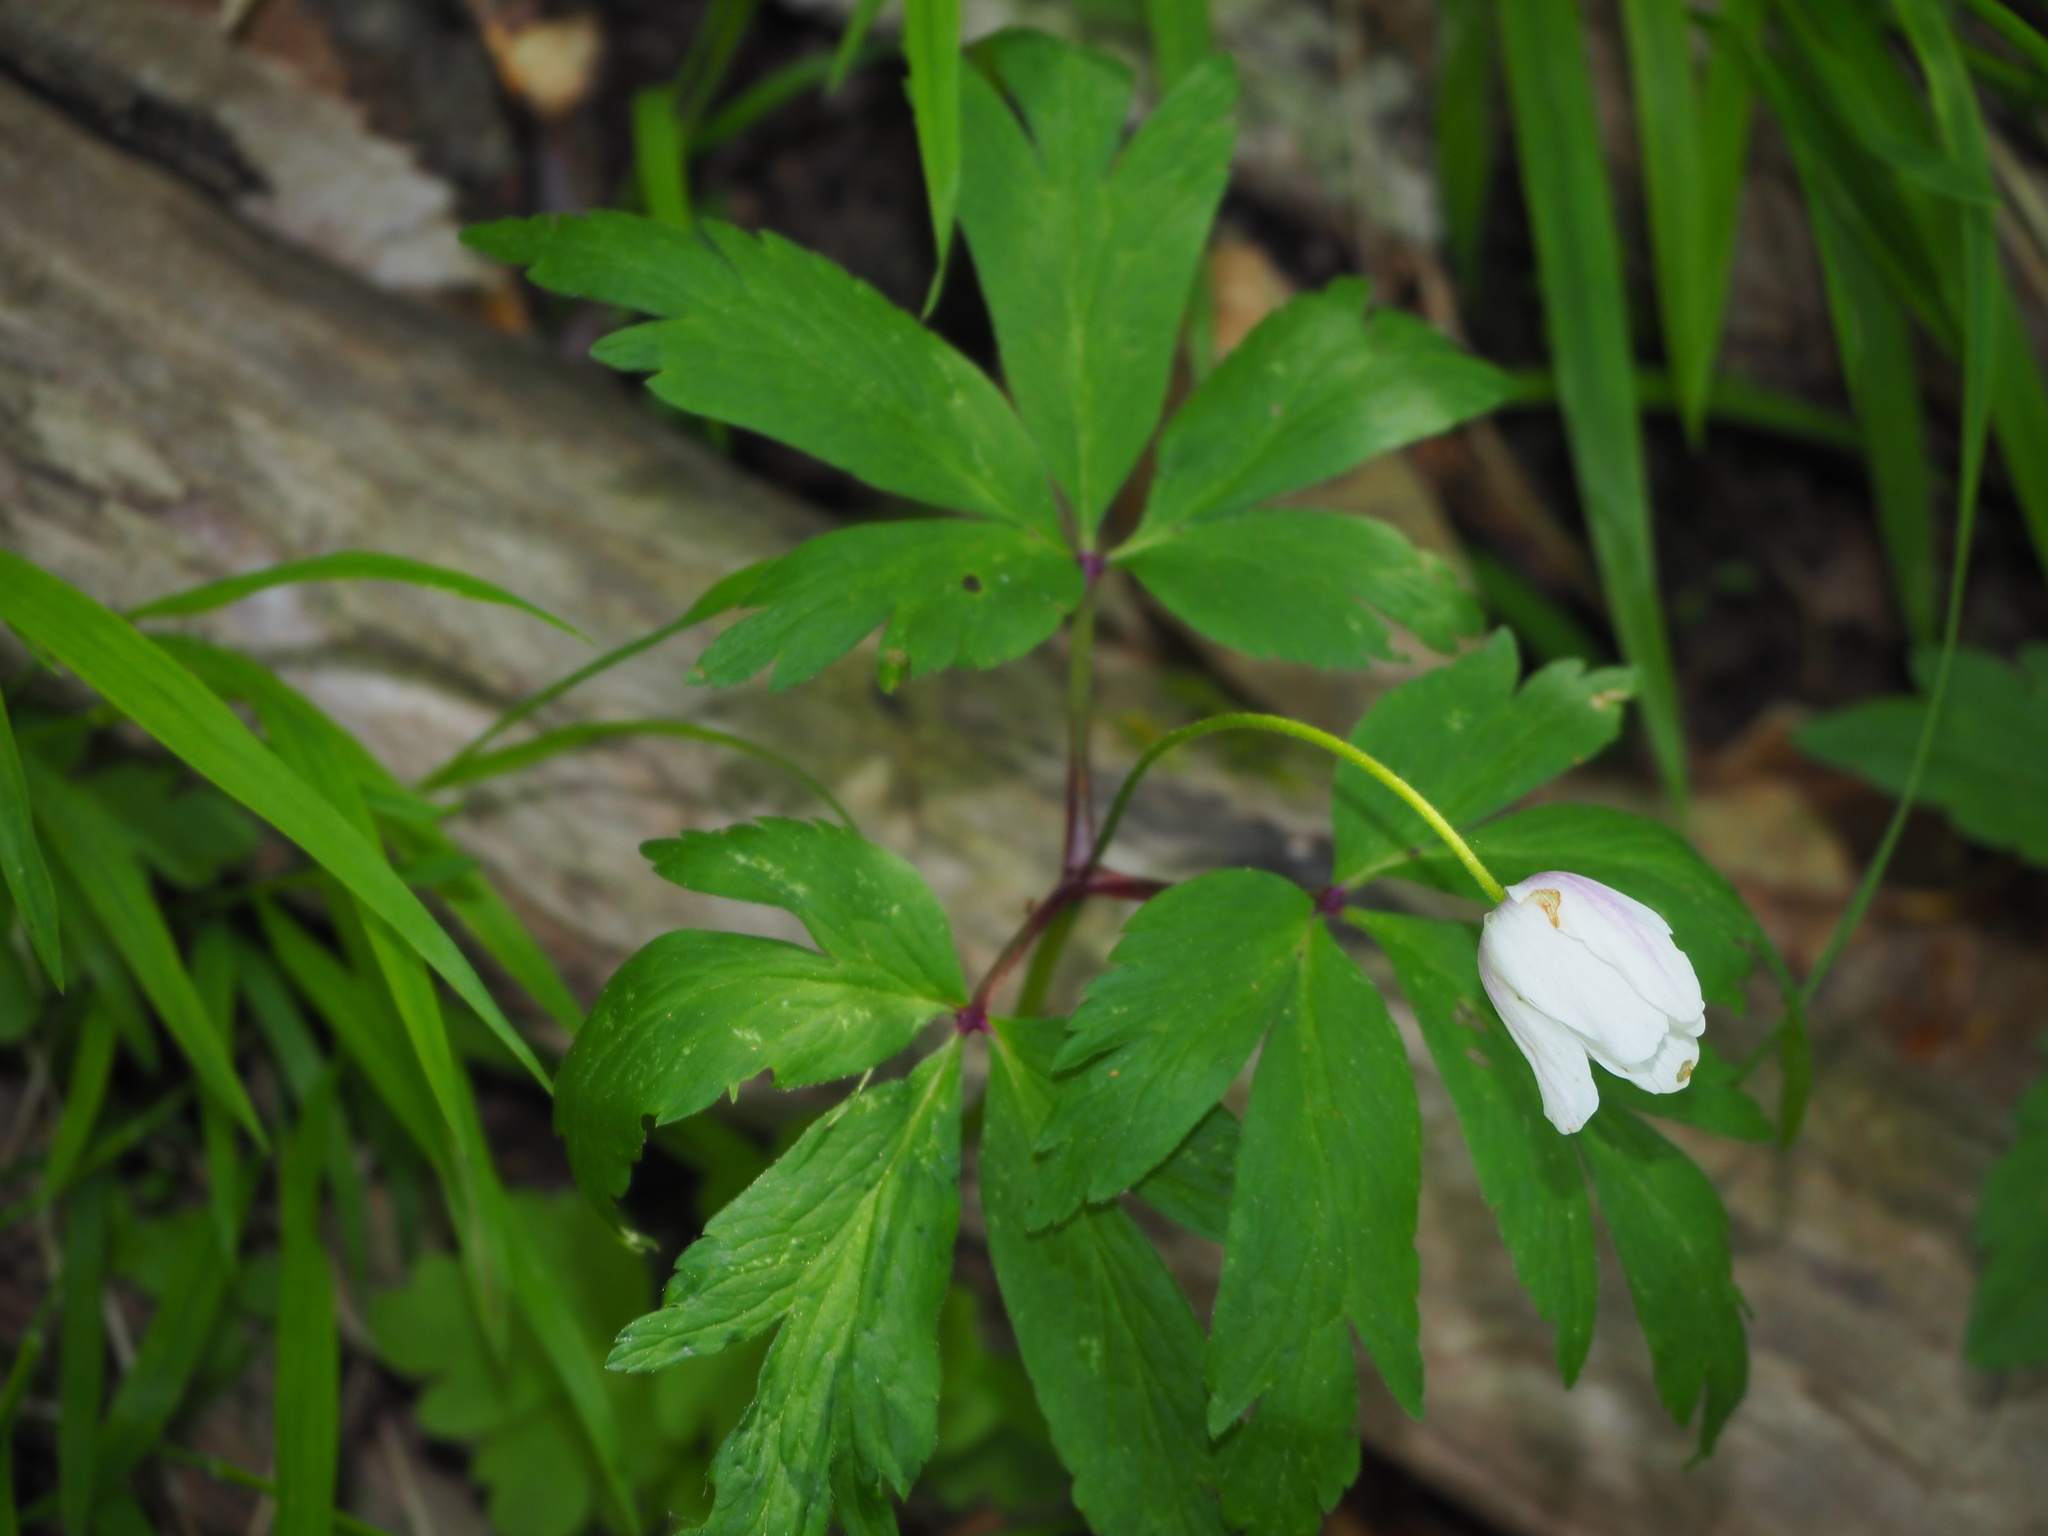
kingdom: Plantae
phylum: Tracheophyta
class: Magnoliopsida
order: Ranunculales
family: Ranunculaceae
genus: Anemone
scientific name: Anemone nemorosa
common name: Wood anemone
